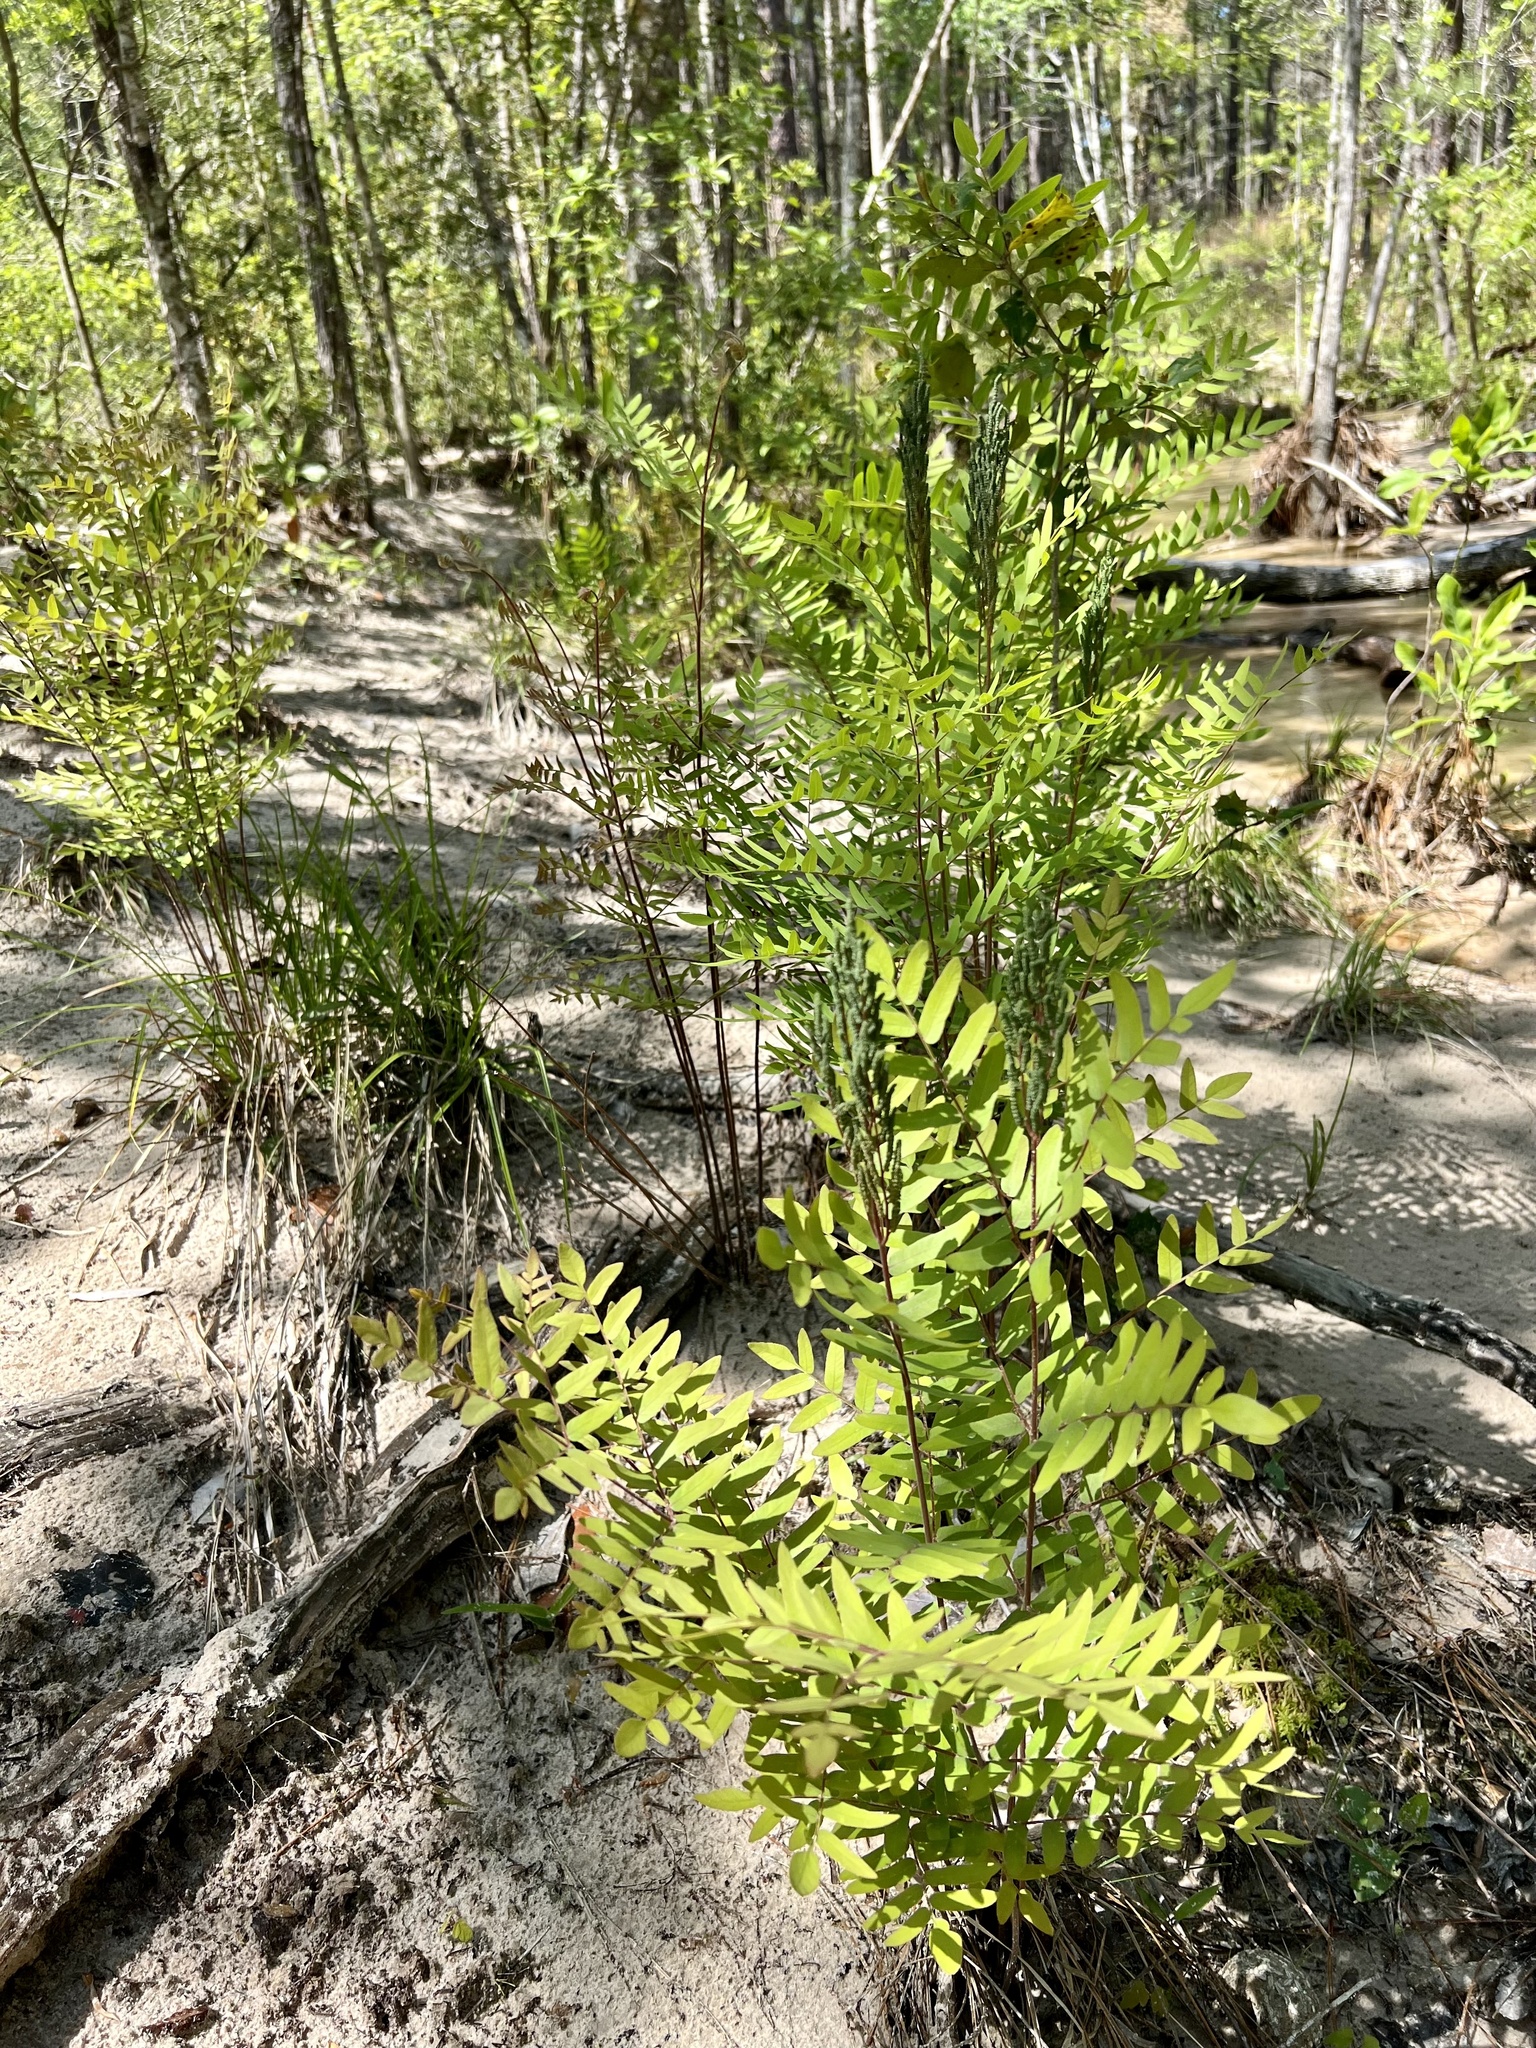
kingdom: Plantae
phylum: Tracheophyta
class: Polypodiopsida
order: Osmundales
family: Osmundaceae
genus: Osmunda
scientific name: Osmunda spectabilis
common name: American royal fern
